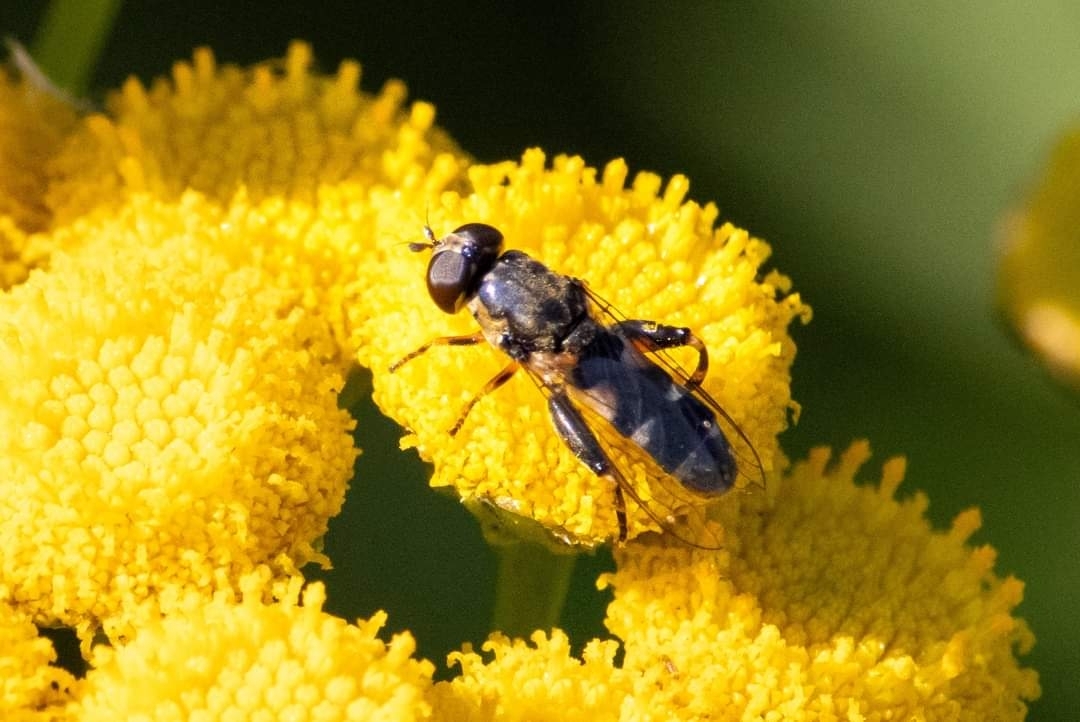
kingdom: Animalia
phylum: Arthropoda
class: Insecta
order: Diptera
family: Syrphidae
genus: Syritta
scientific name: Syritta pipiens
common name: Hover fly
